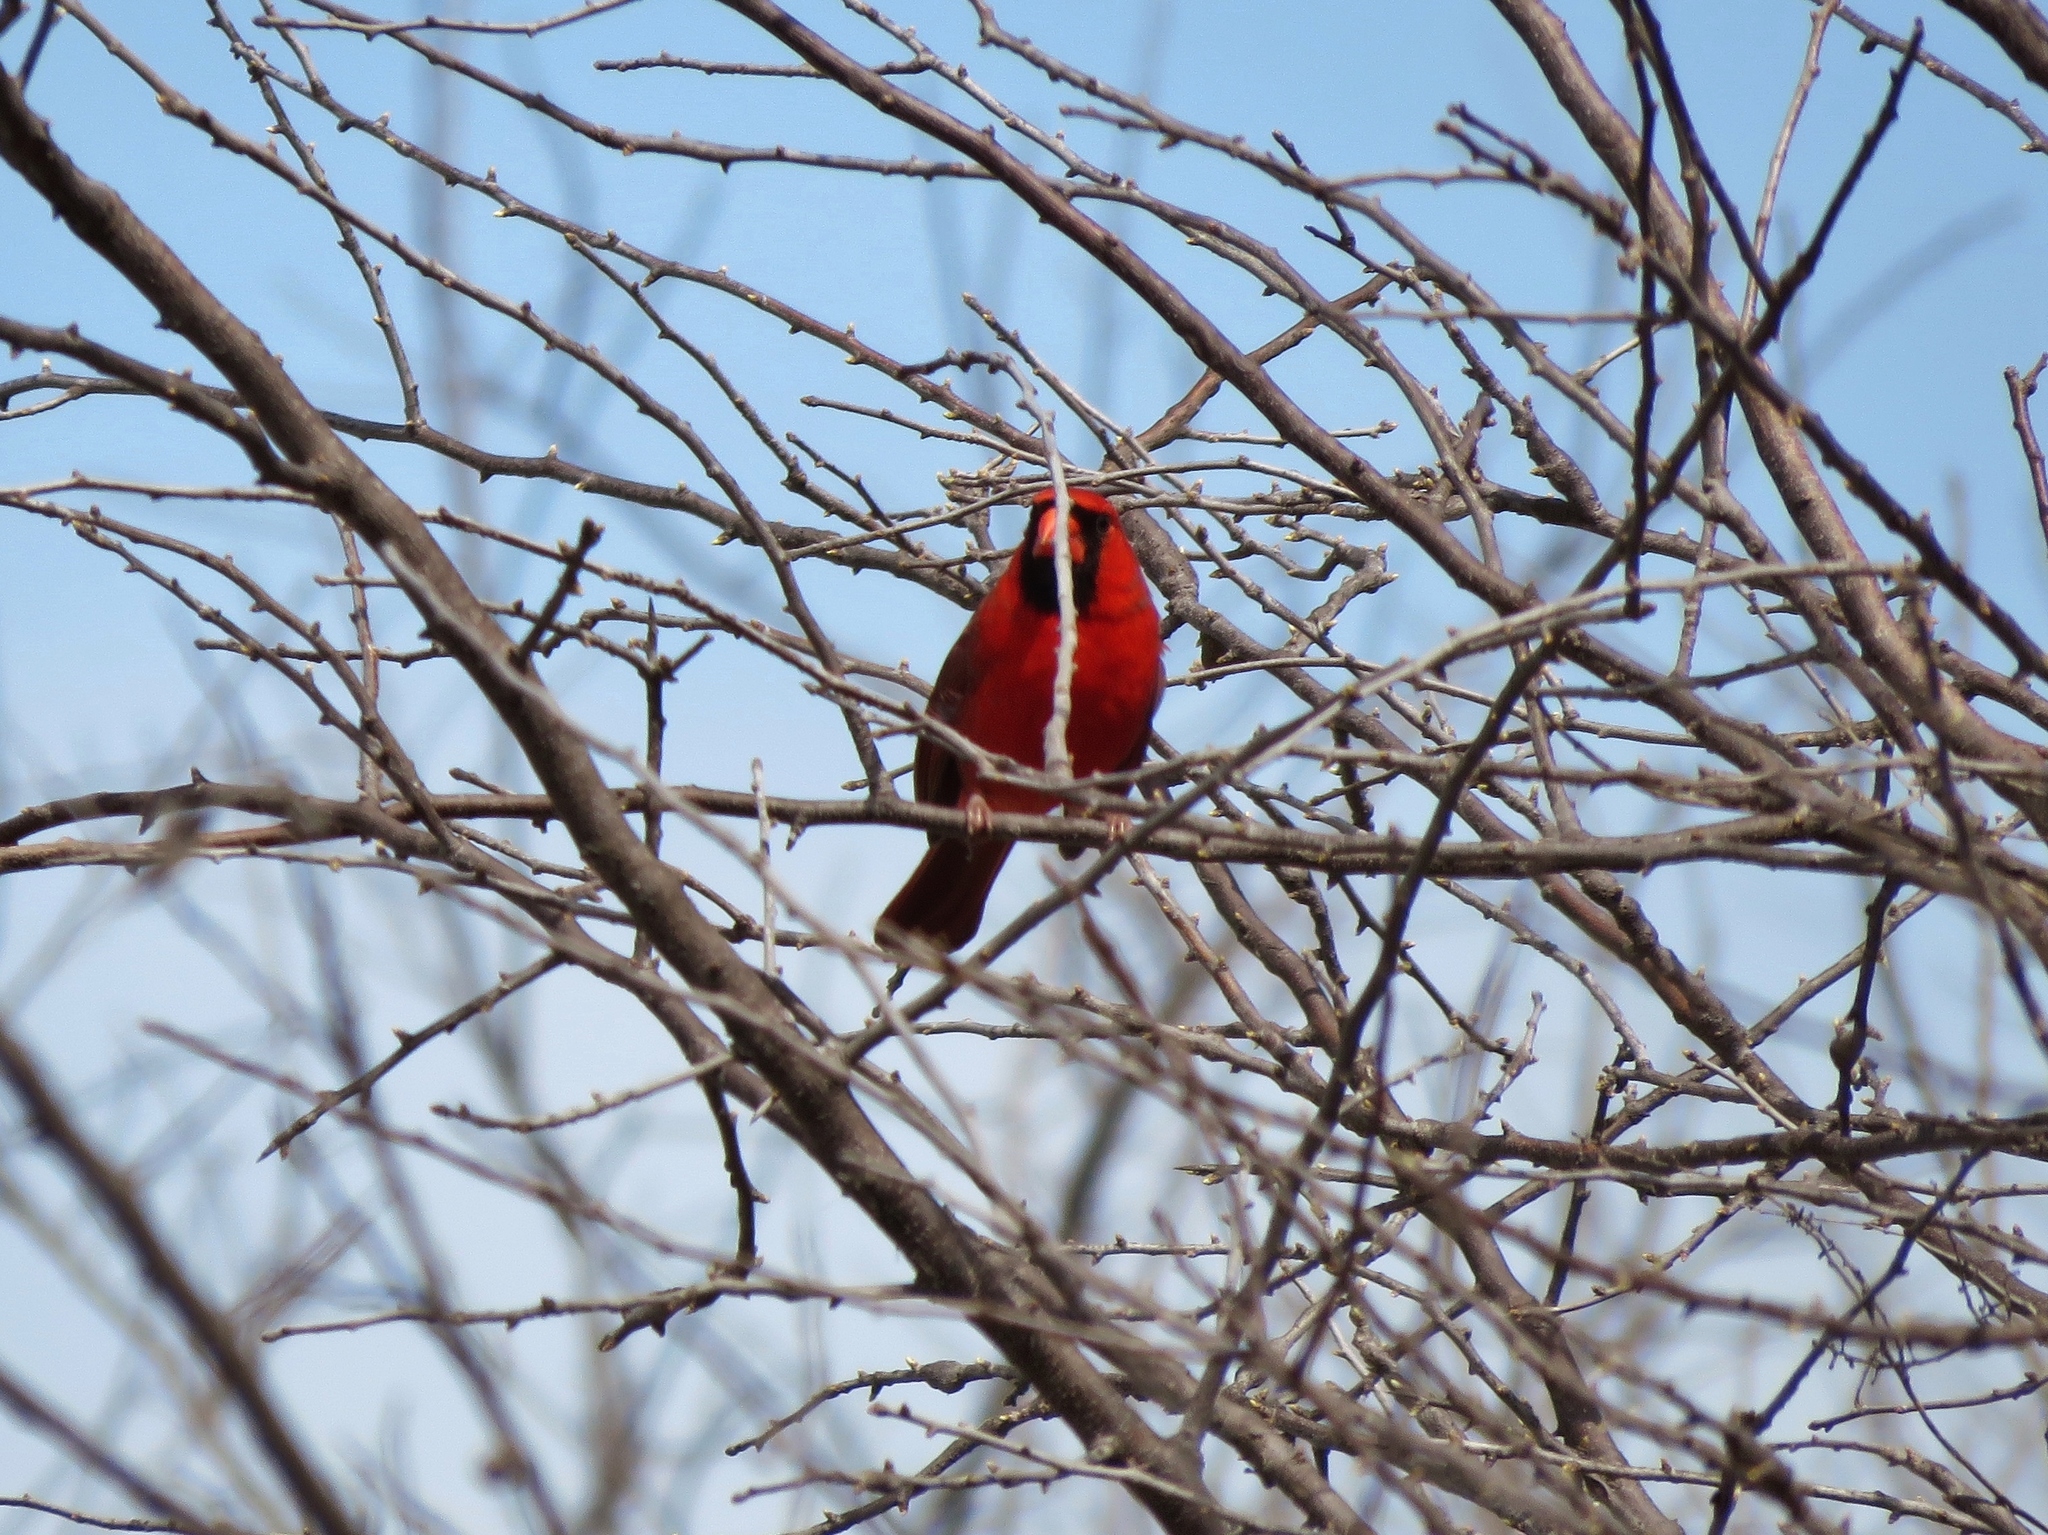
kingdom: Animalia
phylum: Chordata
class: Aves
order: Passeriformes
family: Cardinalidae
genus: Cardinalis
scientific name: Cardinalis cardinalis
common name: Northern cardinal
